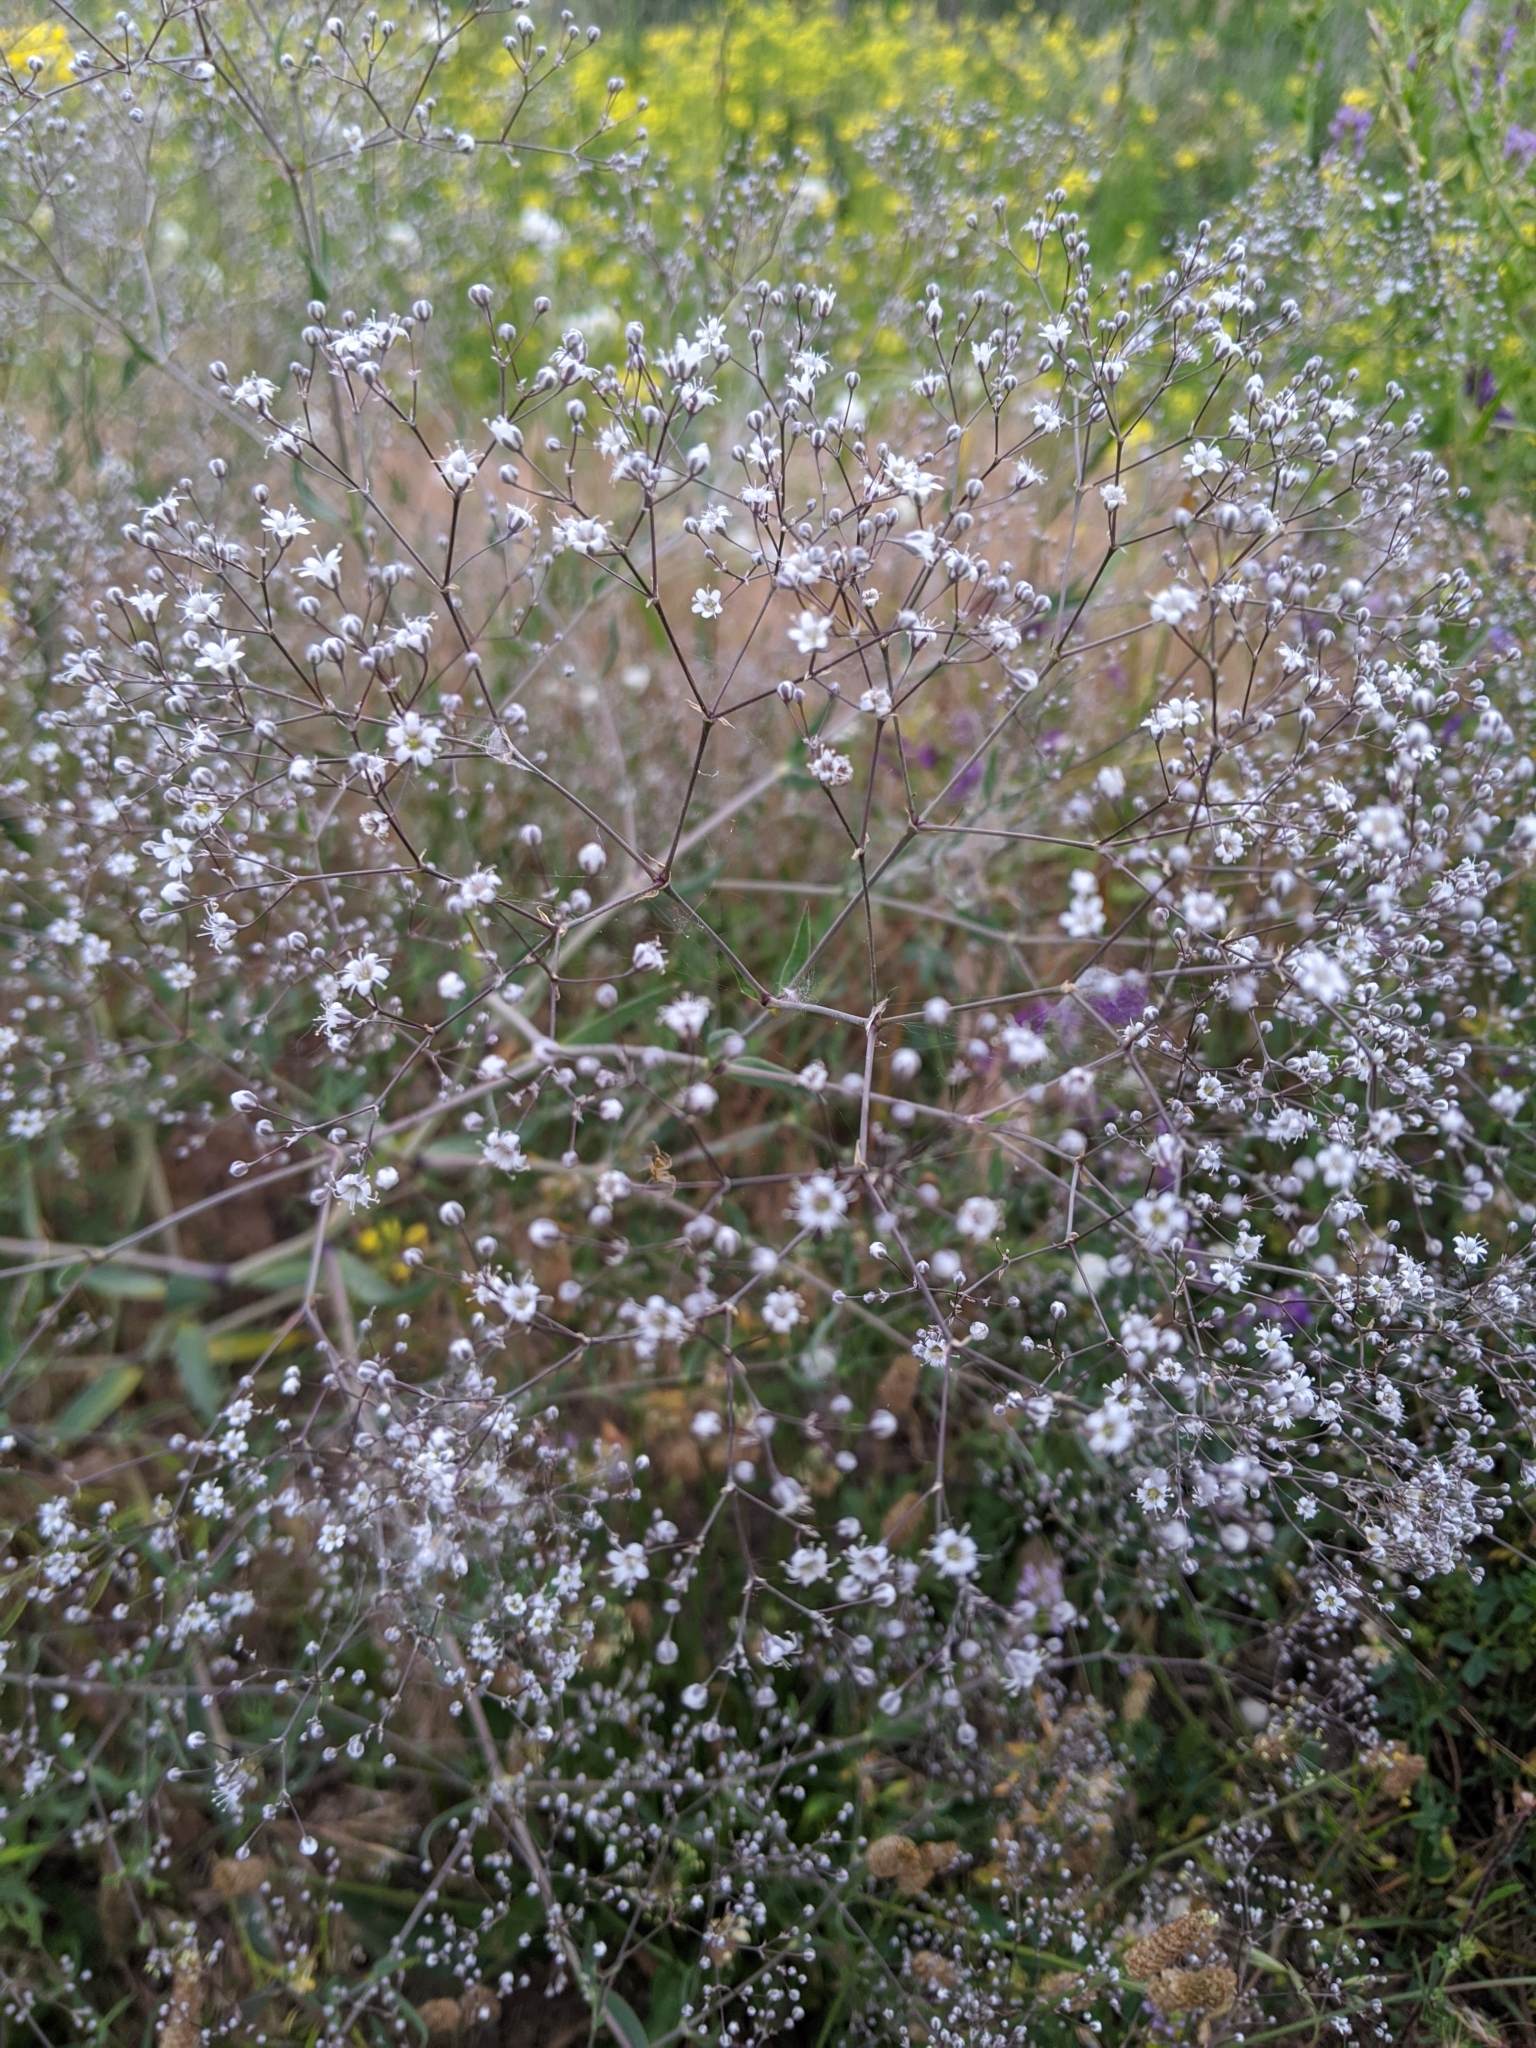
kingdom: Plantae
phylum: Tracheophyta
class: Magnoliopsida
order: Caryophyllales
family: Caryophyllaceae
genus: Gypsophila
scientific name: Gypsophila paniculata
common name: Baby's-breath
